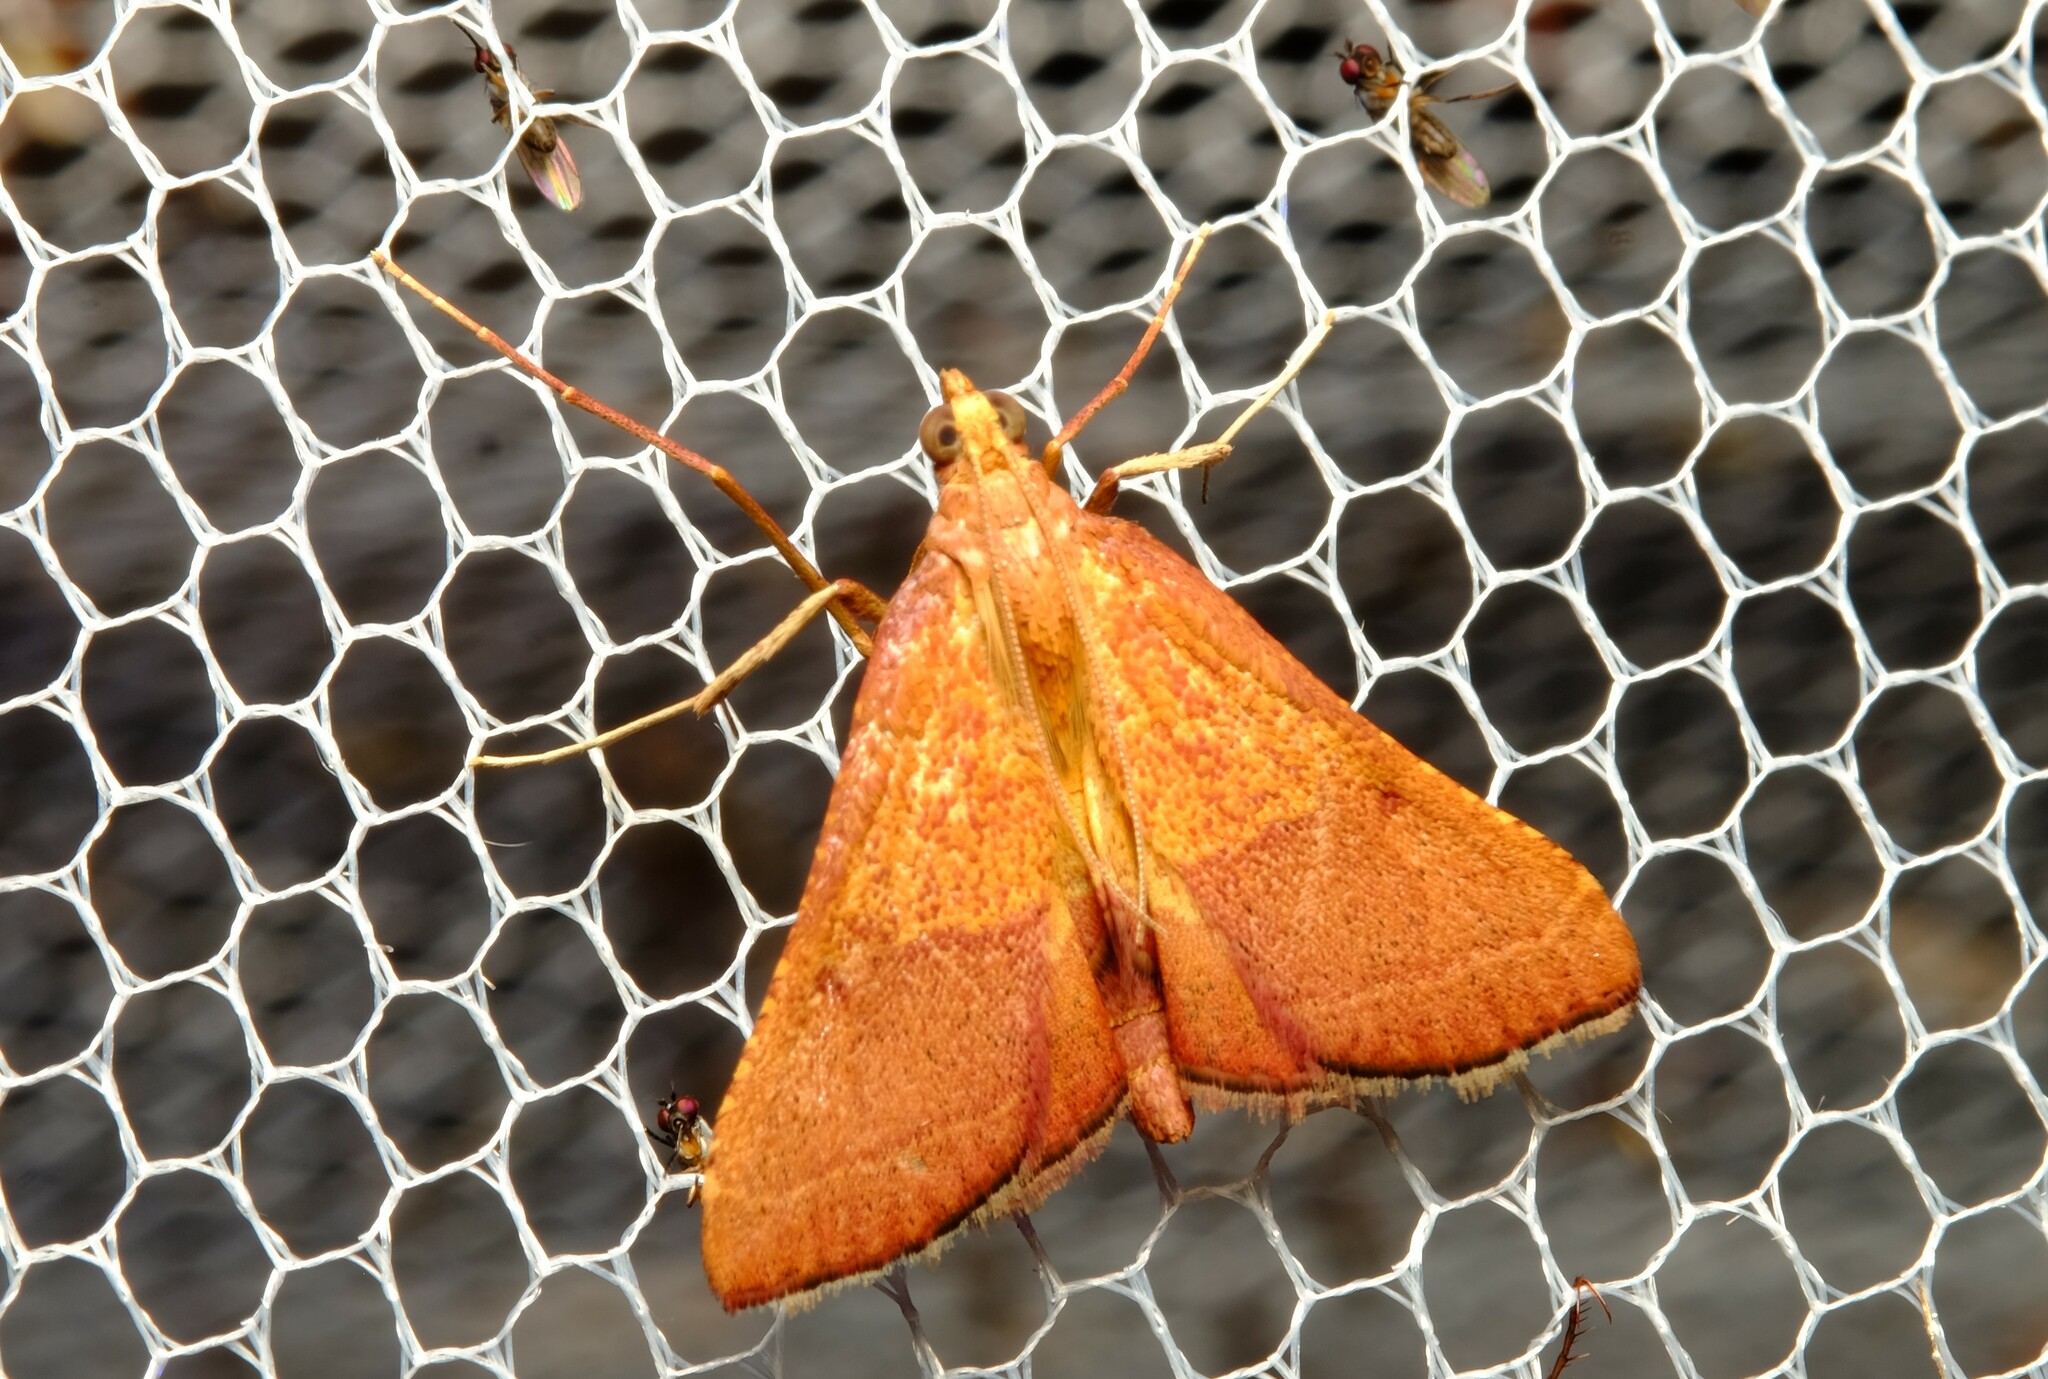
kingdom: Animalia
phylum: Arthropoda
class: Insecta
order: Lepidoptera
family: Pyralidae
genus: Endotricha
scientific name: Endotricha pyrosalis
